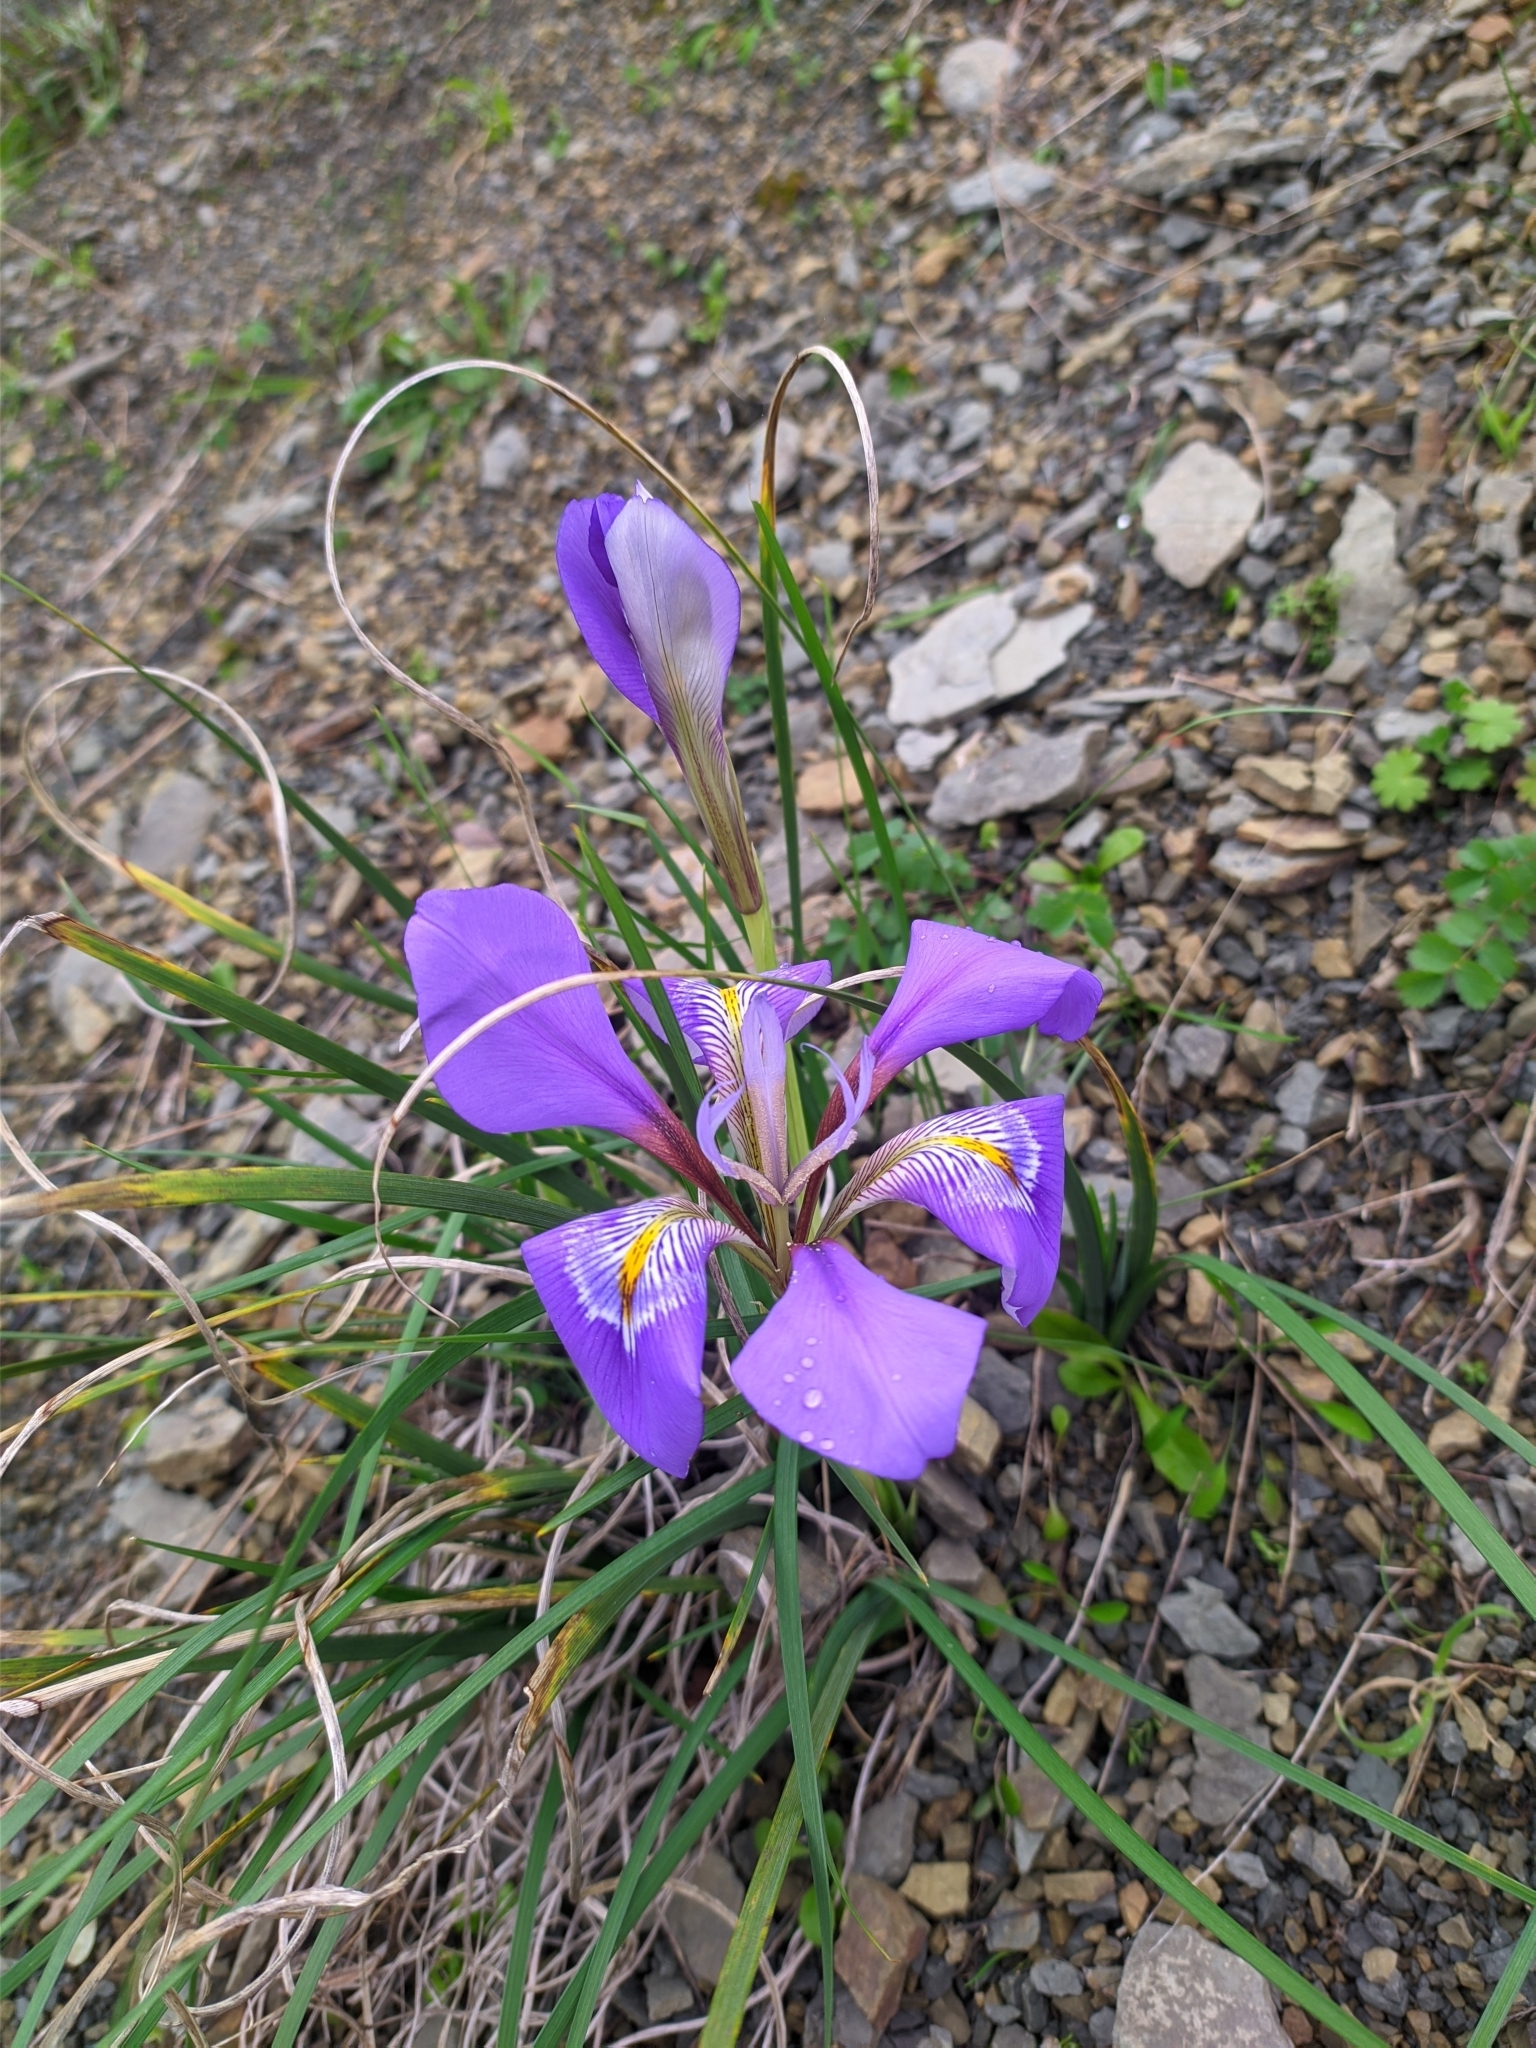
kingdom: Plantae
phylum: Tracheophyta
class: Liliopsida
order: Asparagales
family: Iridaceae
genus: Iris
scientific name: Iris unguicularis
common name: Algerian iris
